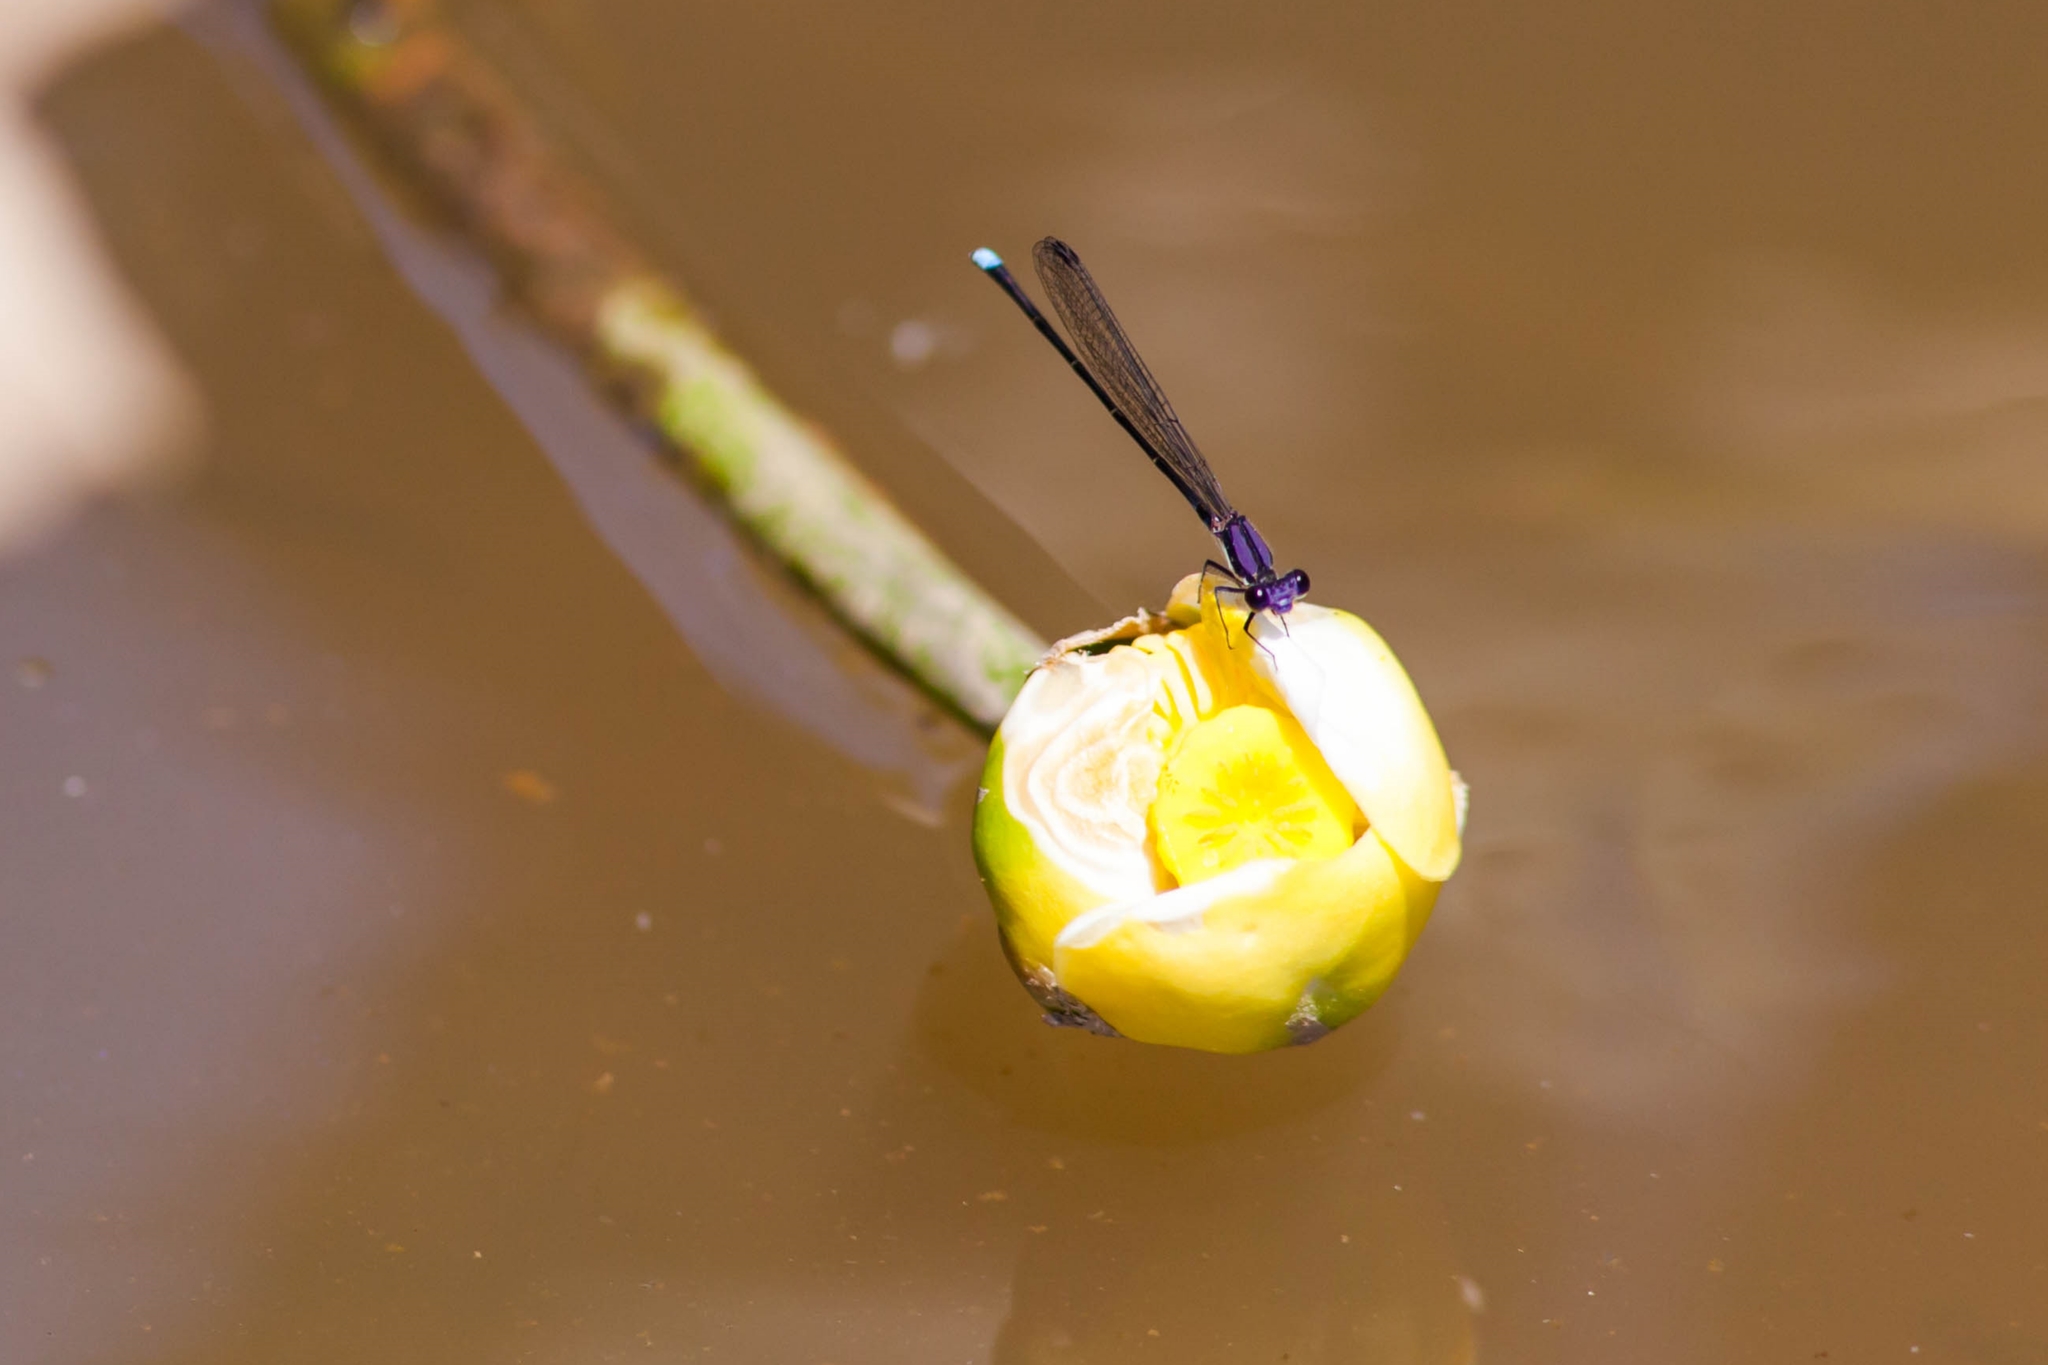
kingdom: Animalia
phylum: Arthropoda
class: Insecta
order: Odonata
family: Coenagrionidae
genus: Argia
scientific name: Argia tibialis
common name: Blue-tipped dancer
